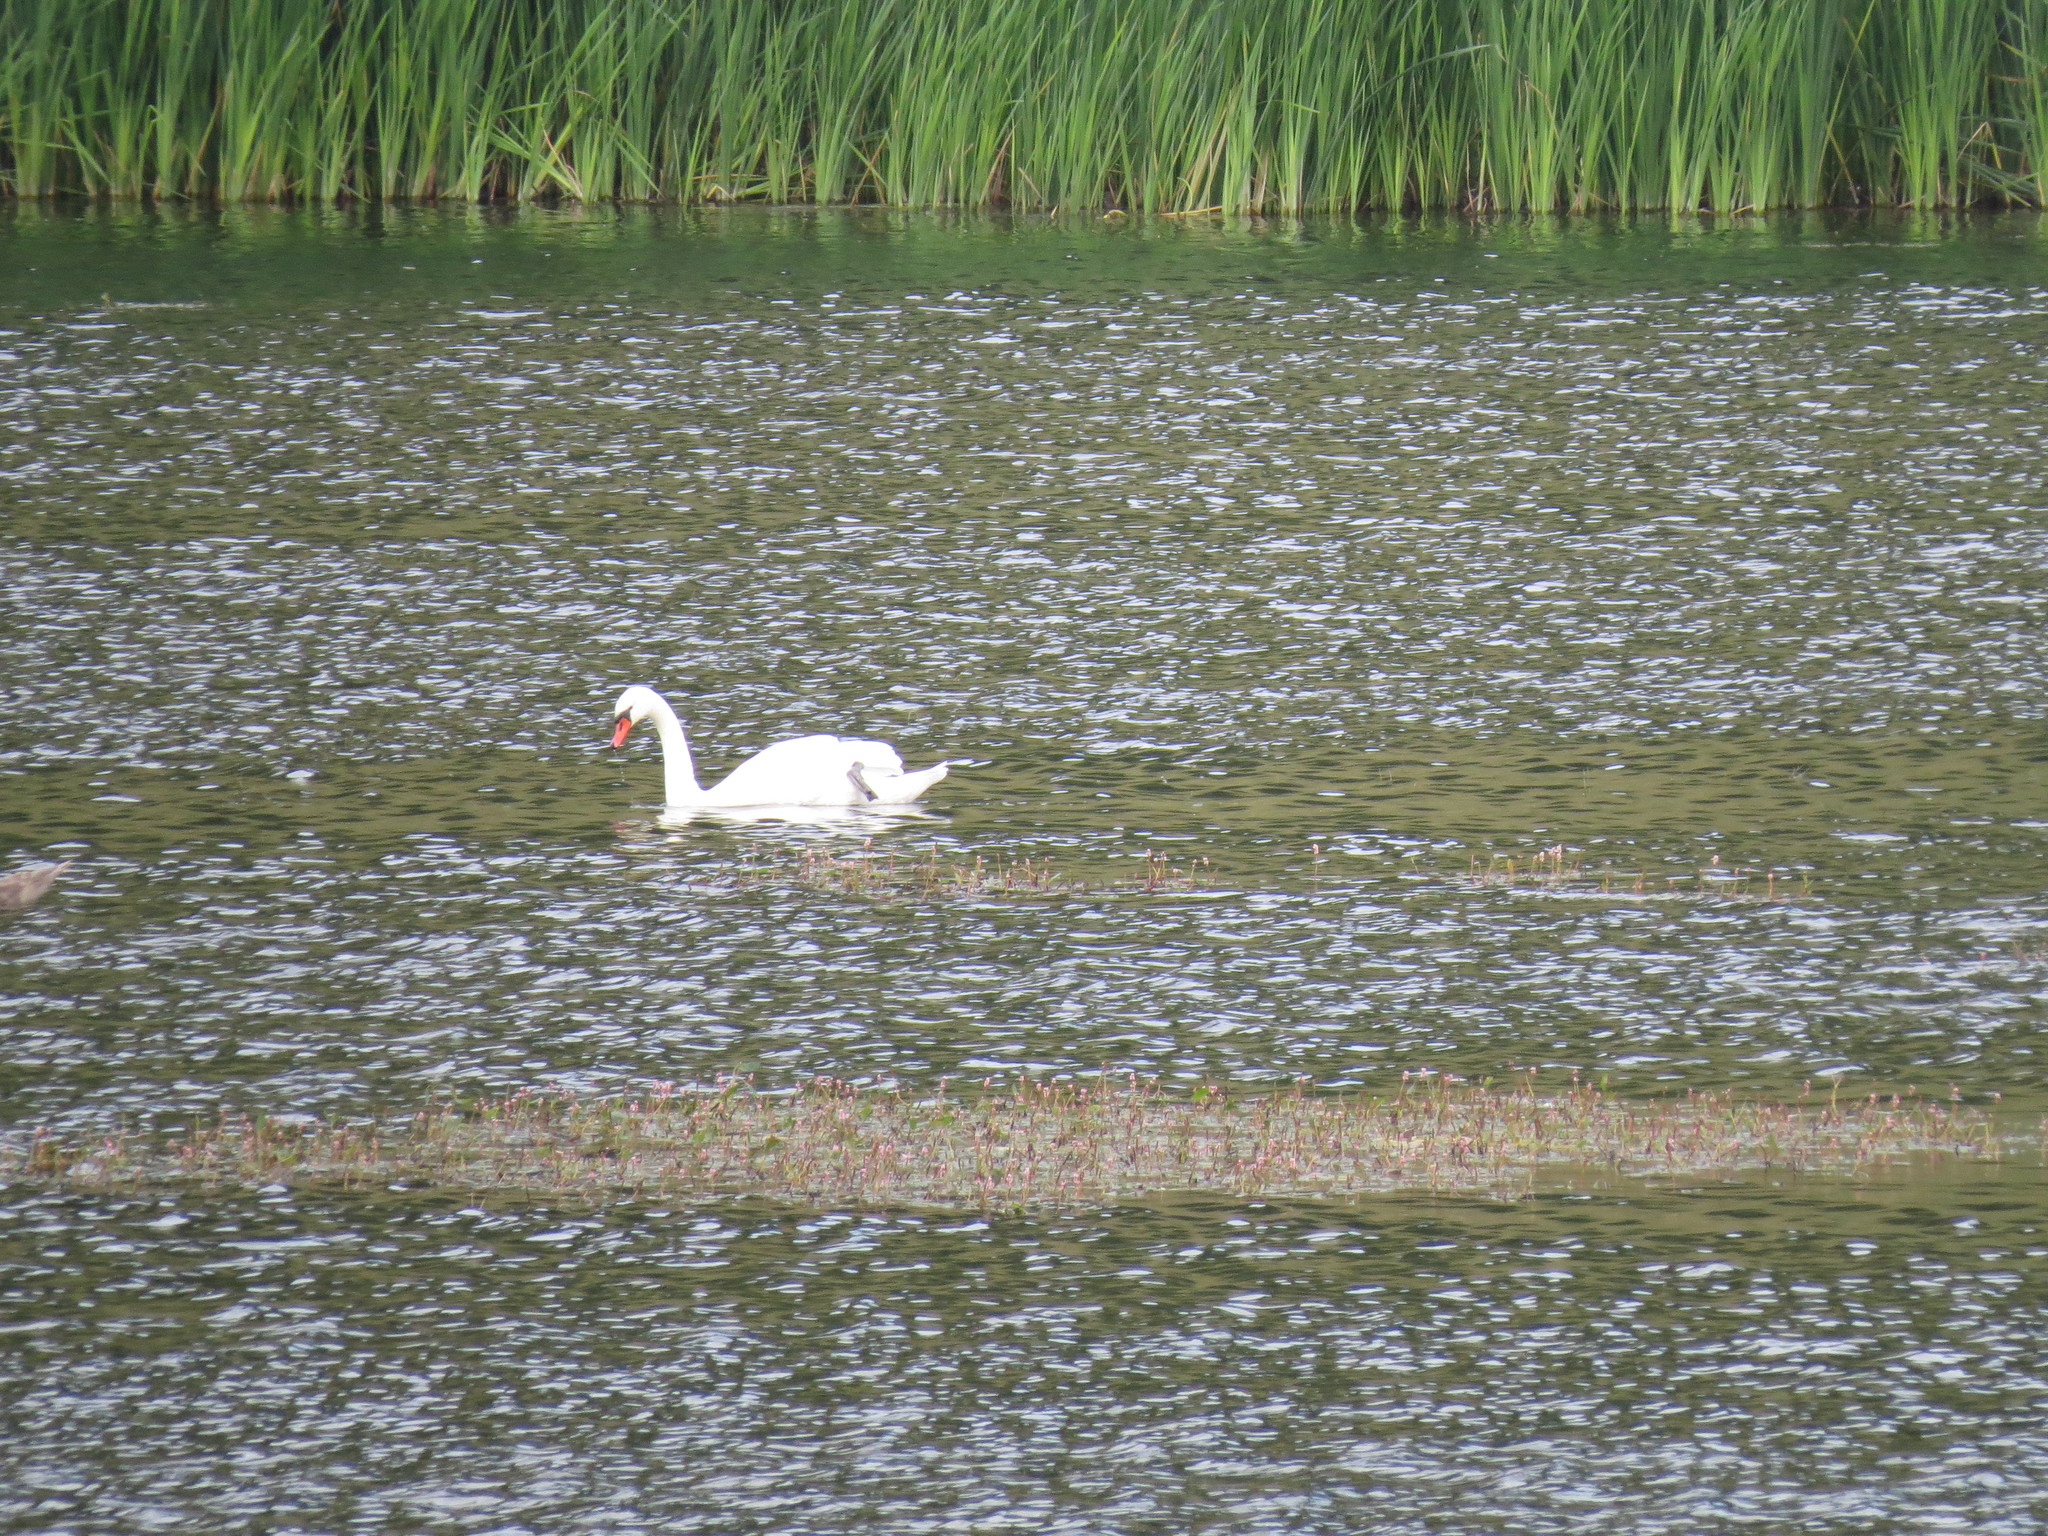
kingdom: Animalia
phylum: Chordata
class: Aves
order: Anseriformes
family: Anatidae
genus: Cygnus
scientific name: Cygnus olor
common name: Mute swan
